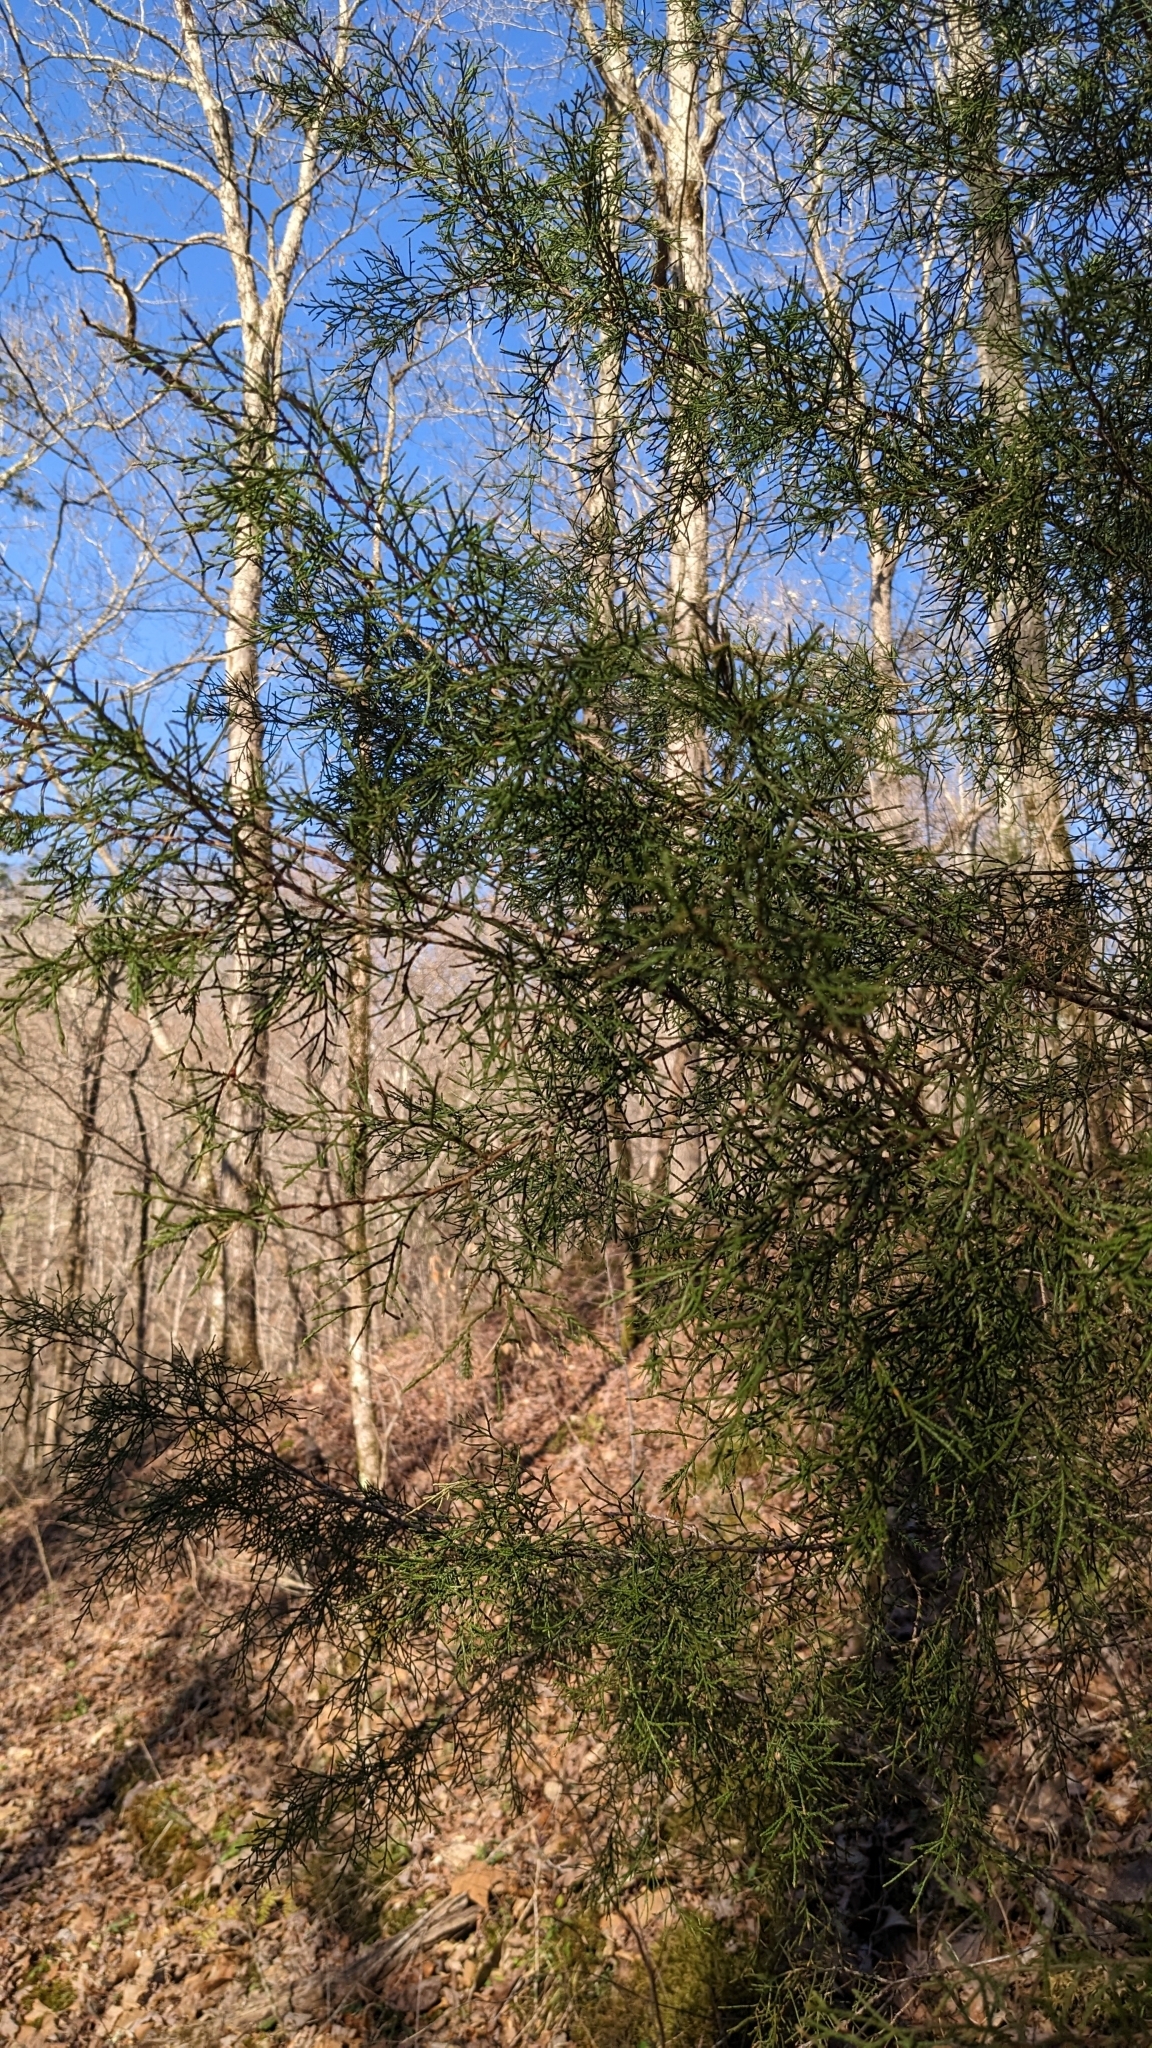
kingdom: Plantae
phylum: Tracheophyta
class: Pinopsida
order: Pinales
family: Cupressaceae
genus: Juniperus
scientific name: Juniperus virginiana
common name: Red juniper
